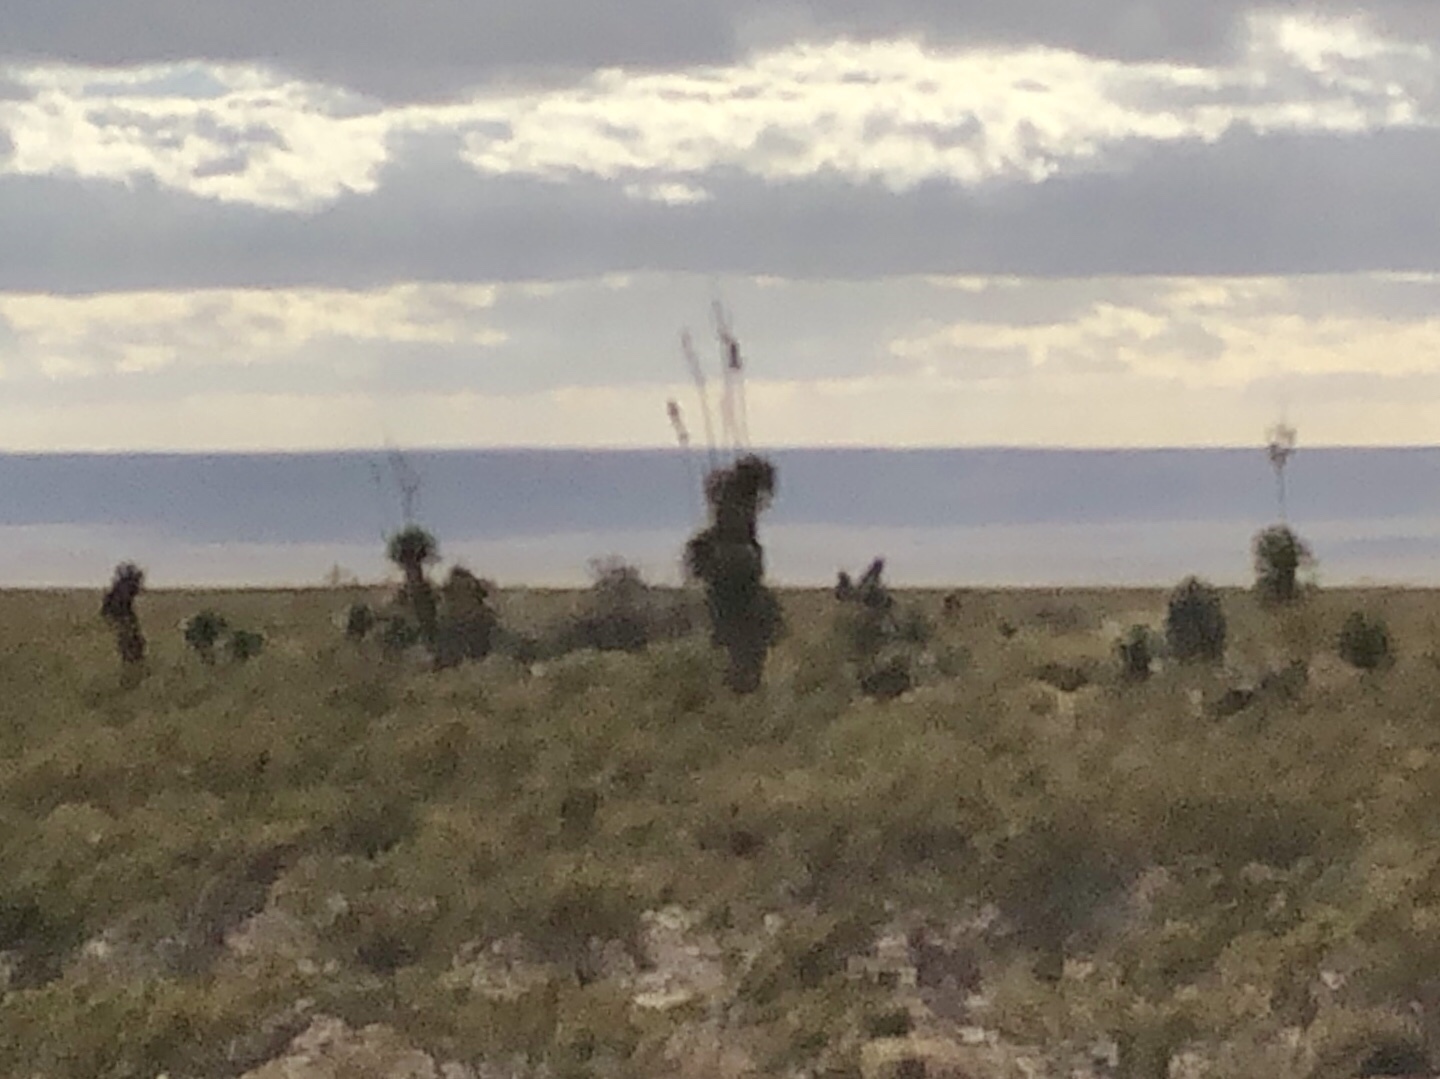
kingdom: Plantae
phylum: Tracheophyta
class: Liliopsida
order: Asparagales
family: Asparagaceae
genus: Yucca
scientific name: Yucca elata
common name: Palmella
